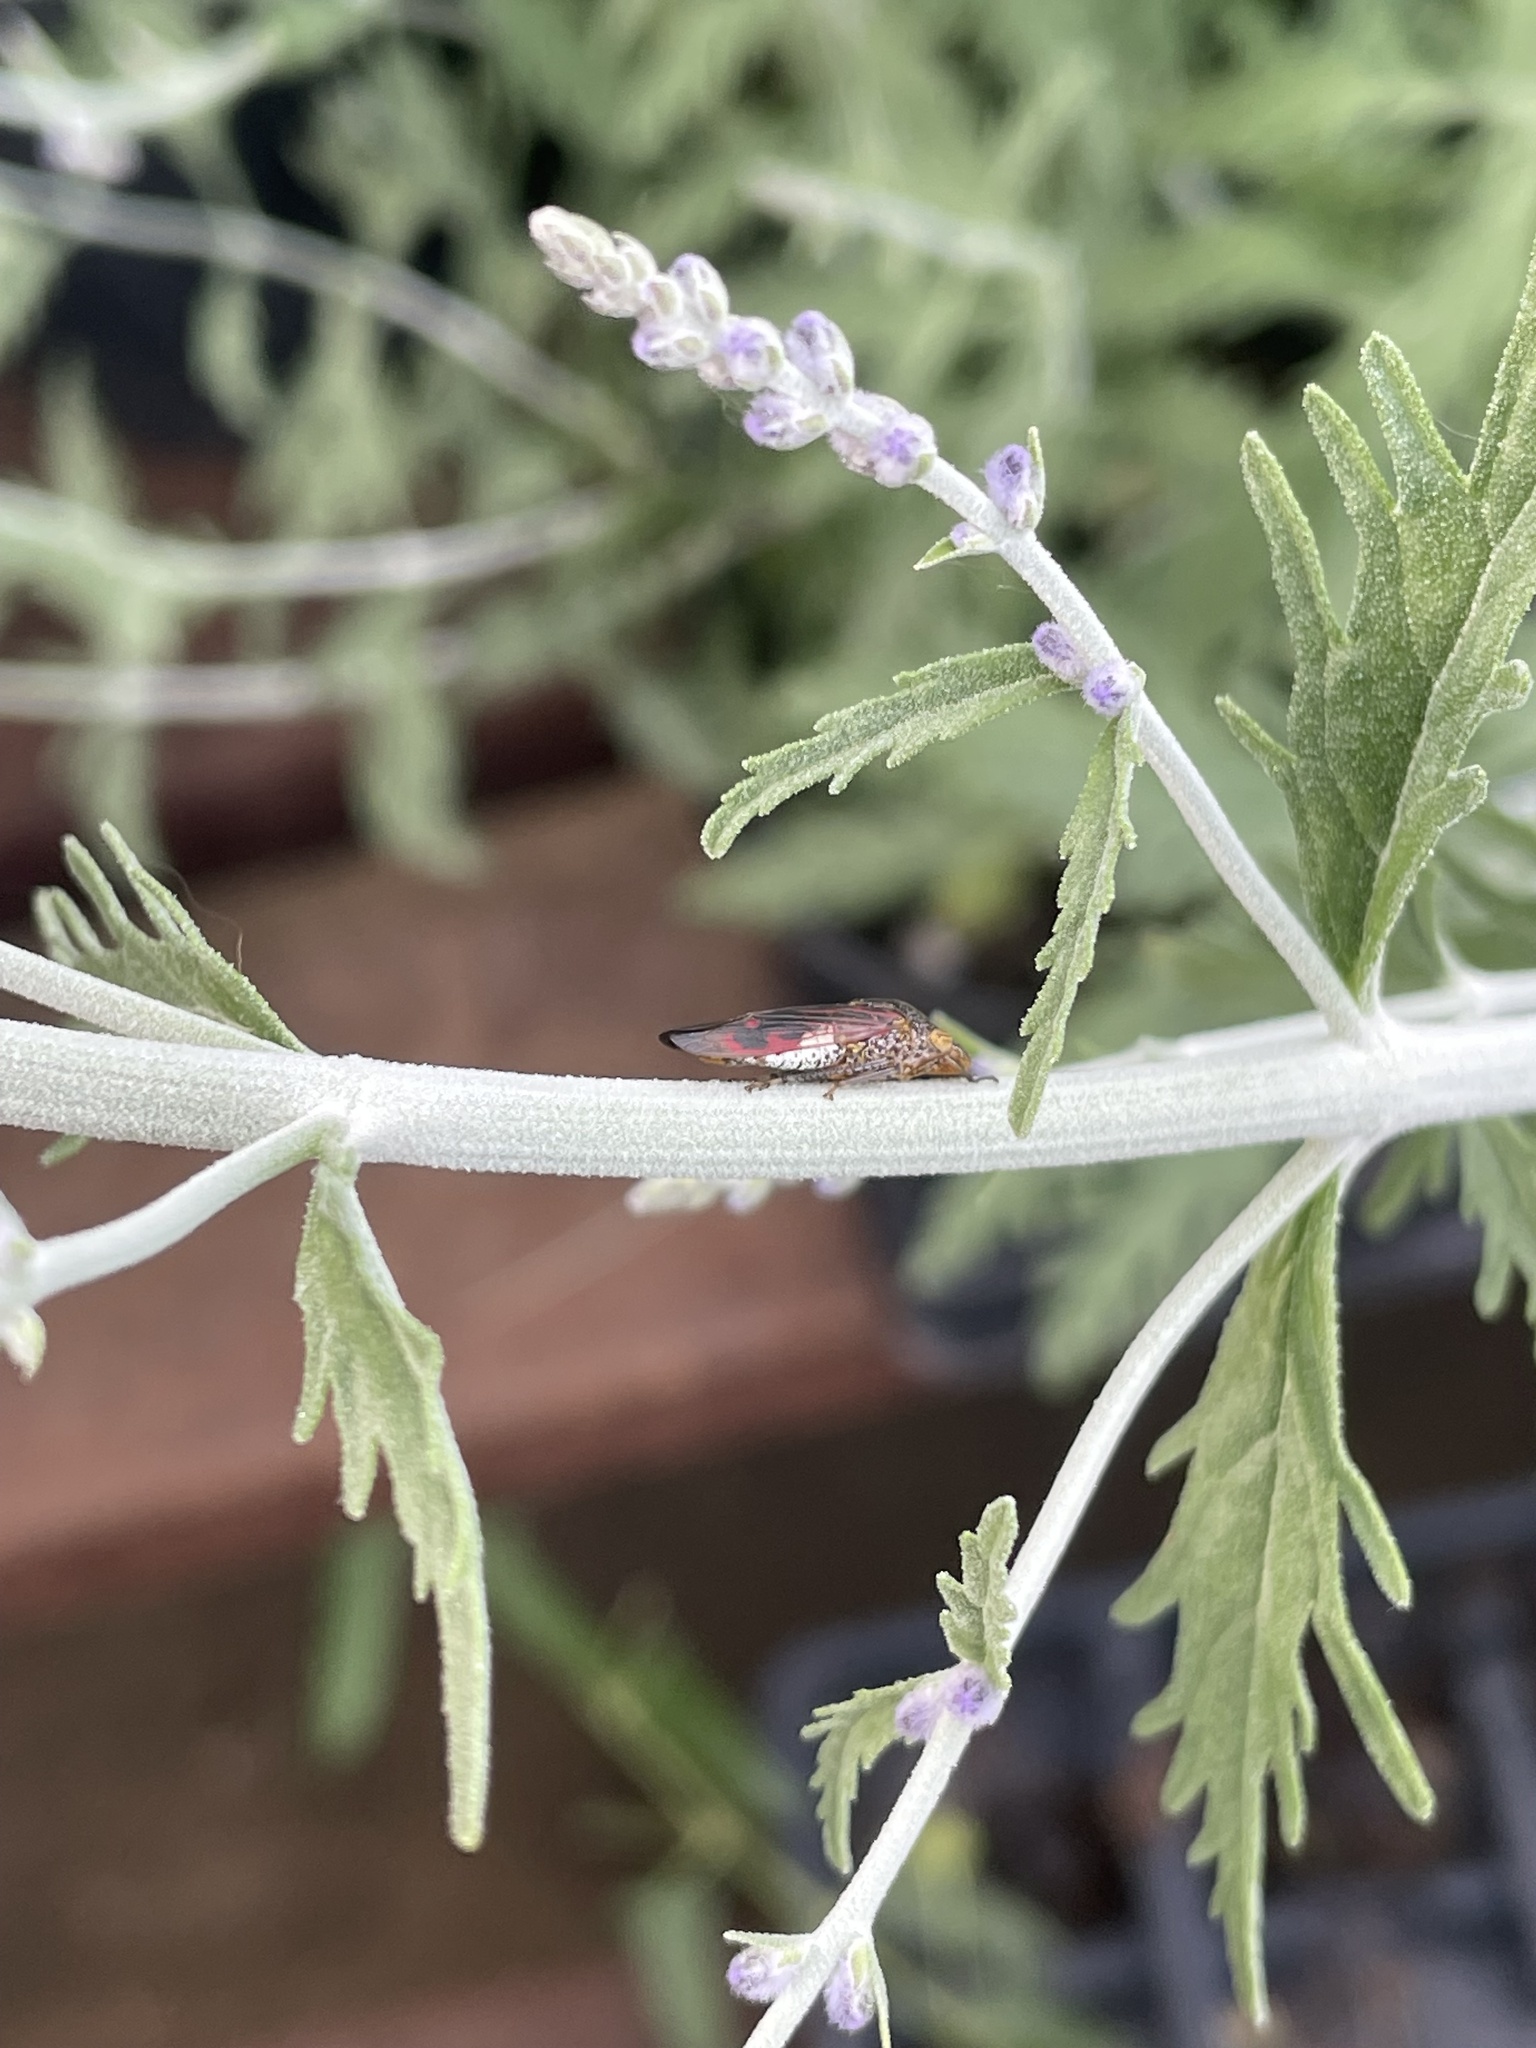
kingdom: Animalia
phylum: Arthropoda
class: Insecta
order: Hemiptera
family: Cicadellidae
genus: Homalodisca
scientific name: Homalodisca vitripennis
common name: Glassy-winged sharpshooter
